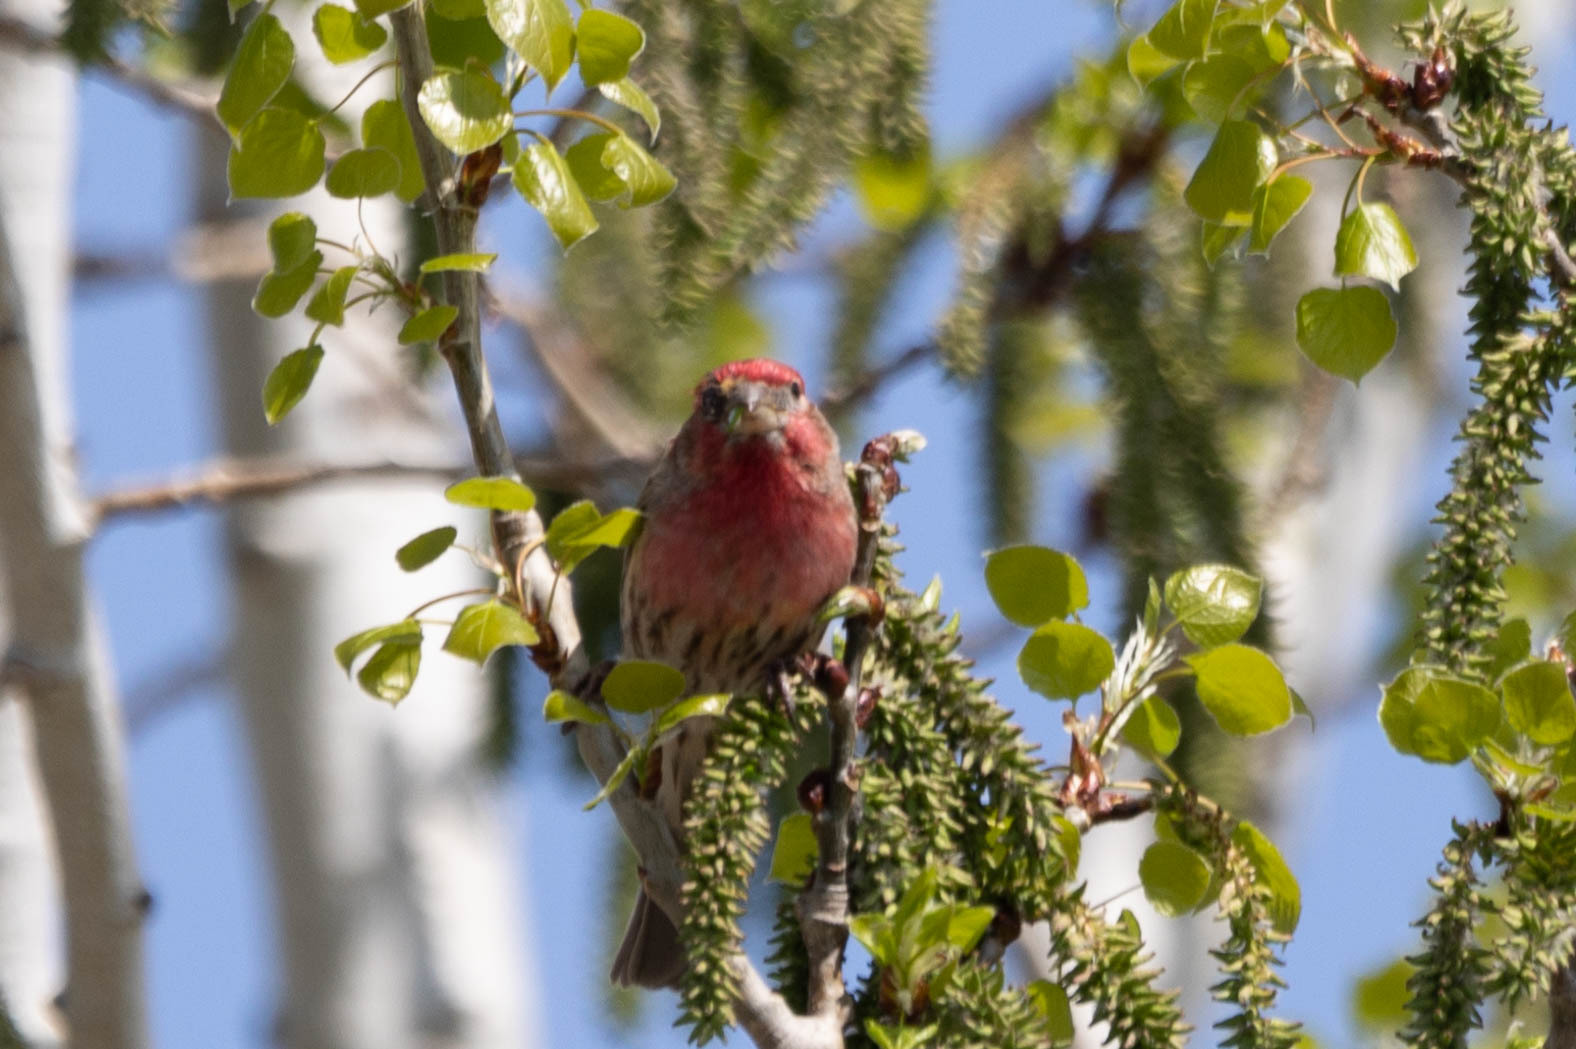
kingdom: Animalia
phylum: Chordata
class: Aves
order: Passeriformes
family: Fringillidae
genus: Haemorhous
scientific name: Haemorhous mexicanus
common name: House finch
